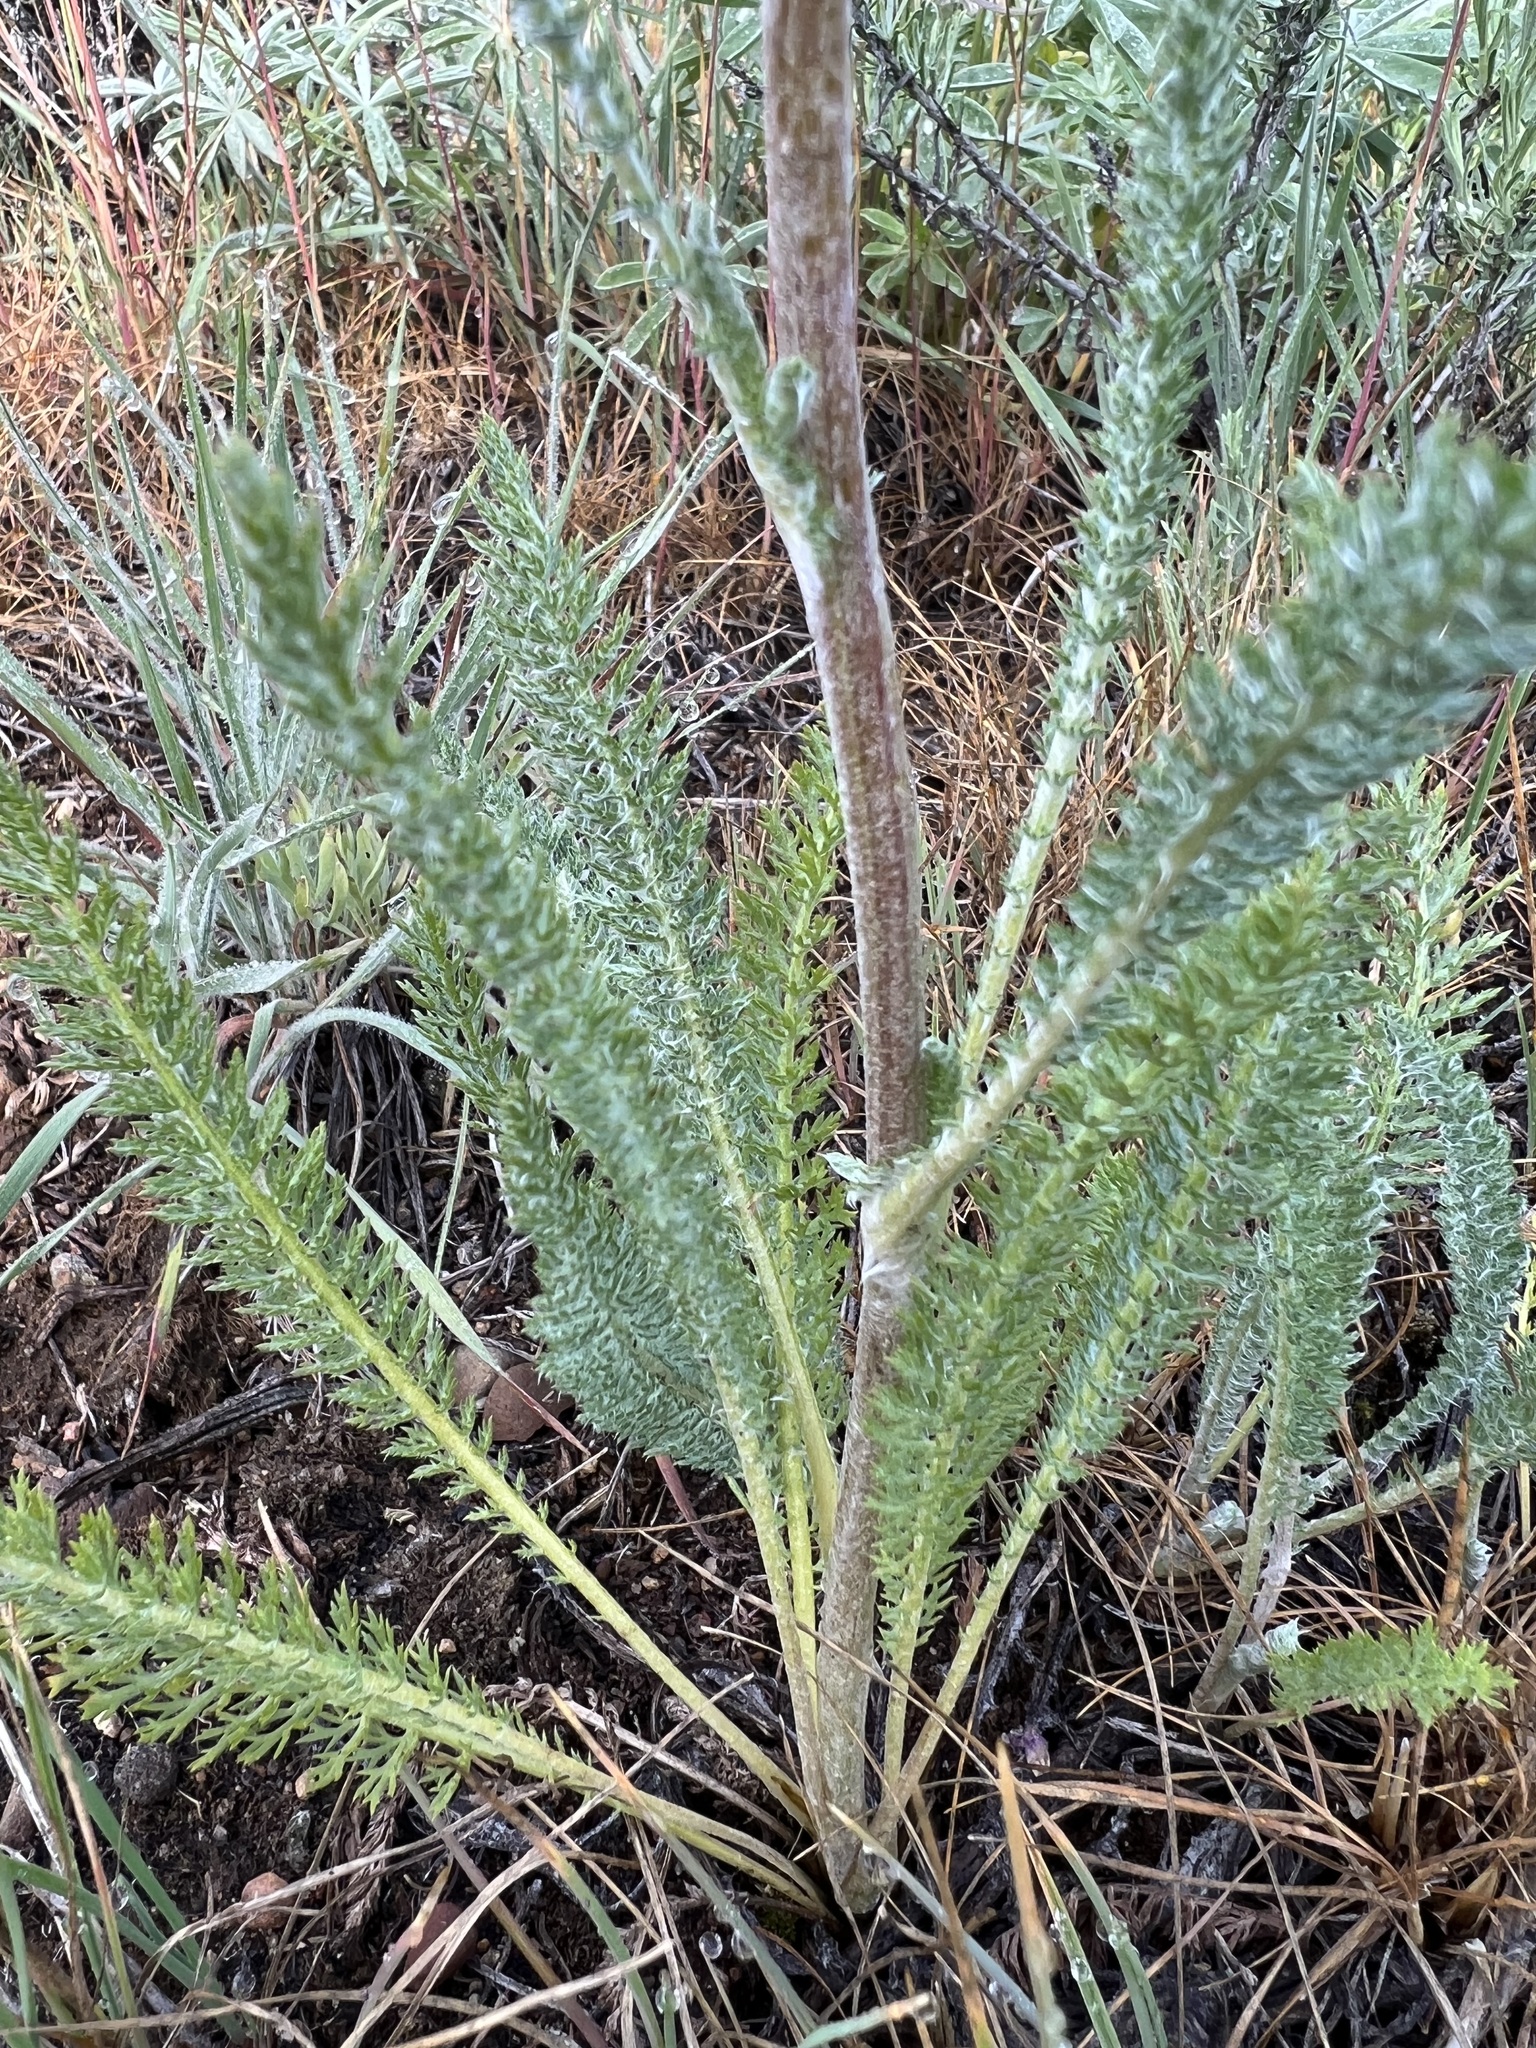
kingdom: Plantae
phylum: Tracheophyta
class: Magnoliopsida
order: Asterales
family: Asteraceae
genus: Achillea
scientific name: Achillea millefolium
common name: Yarrow
